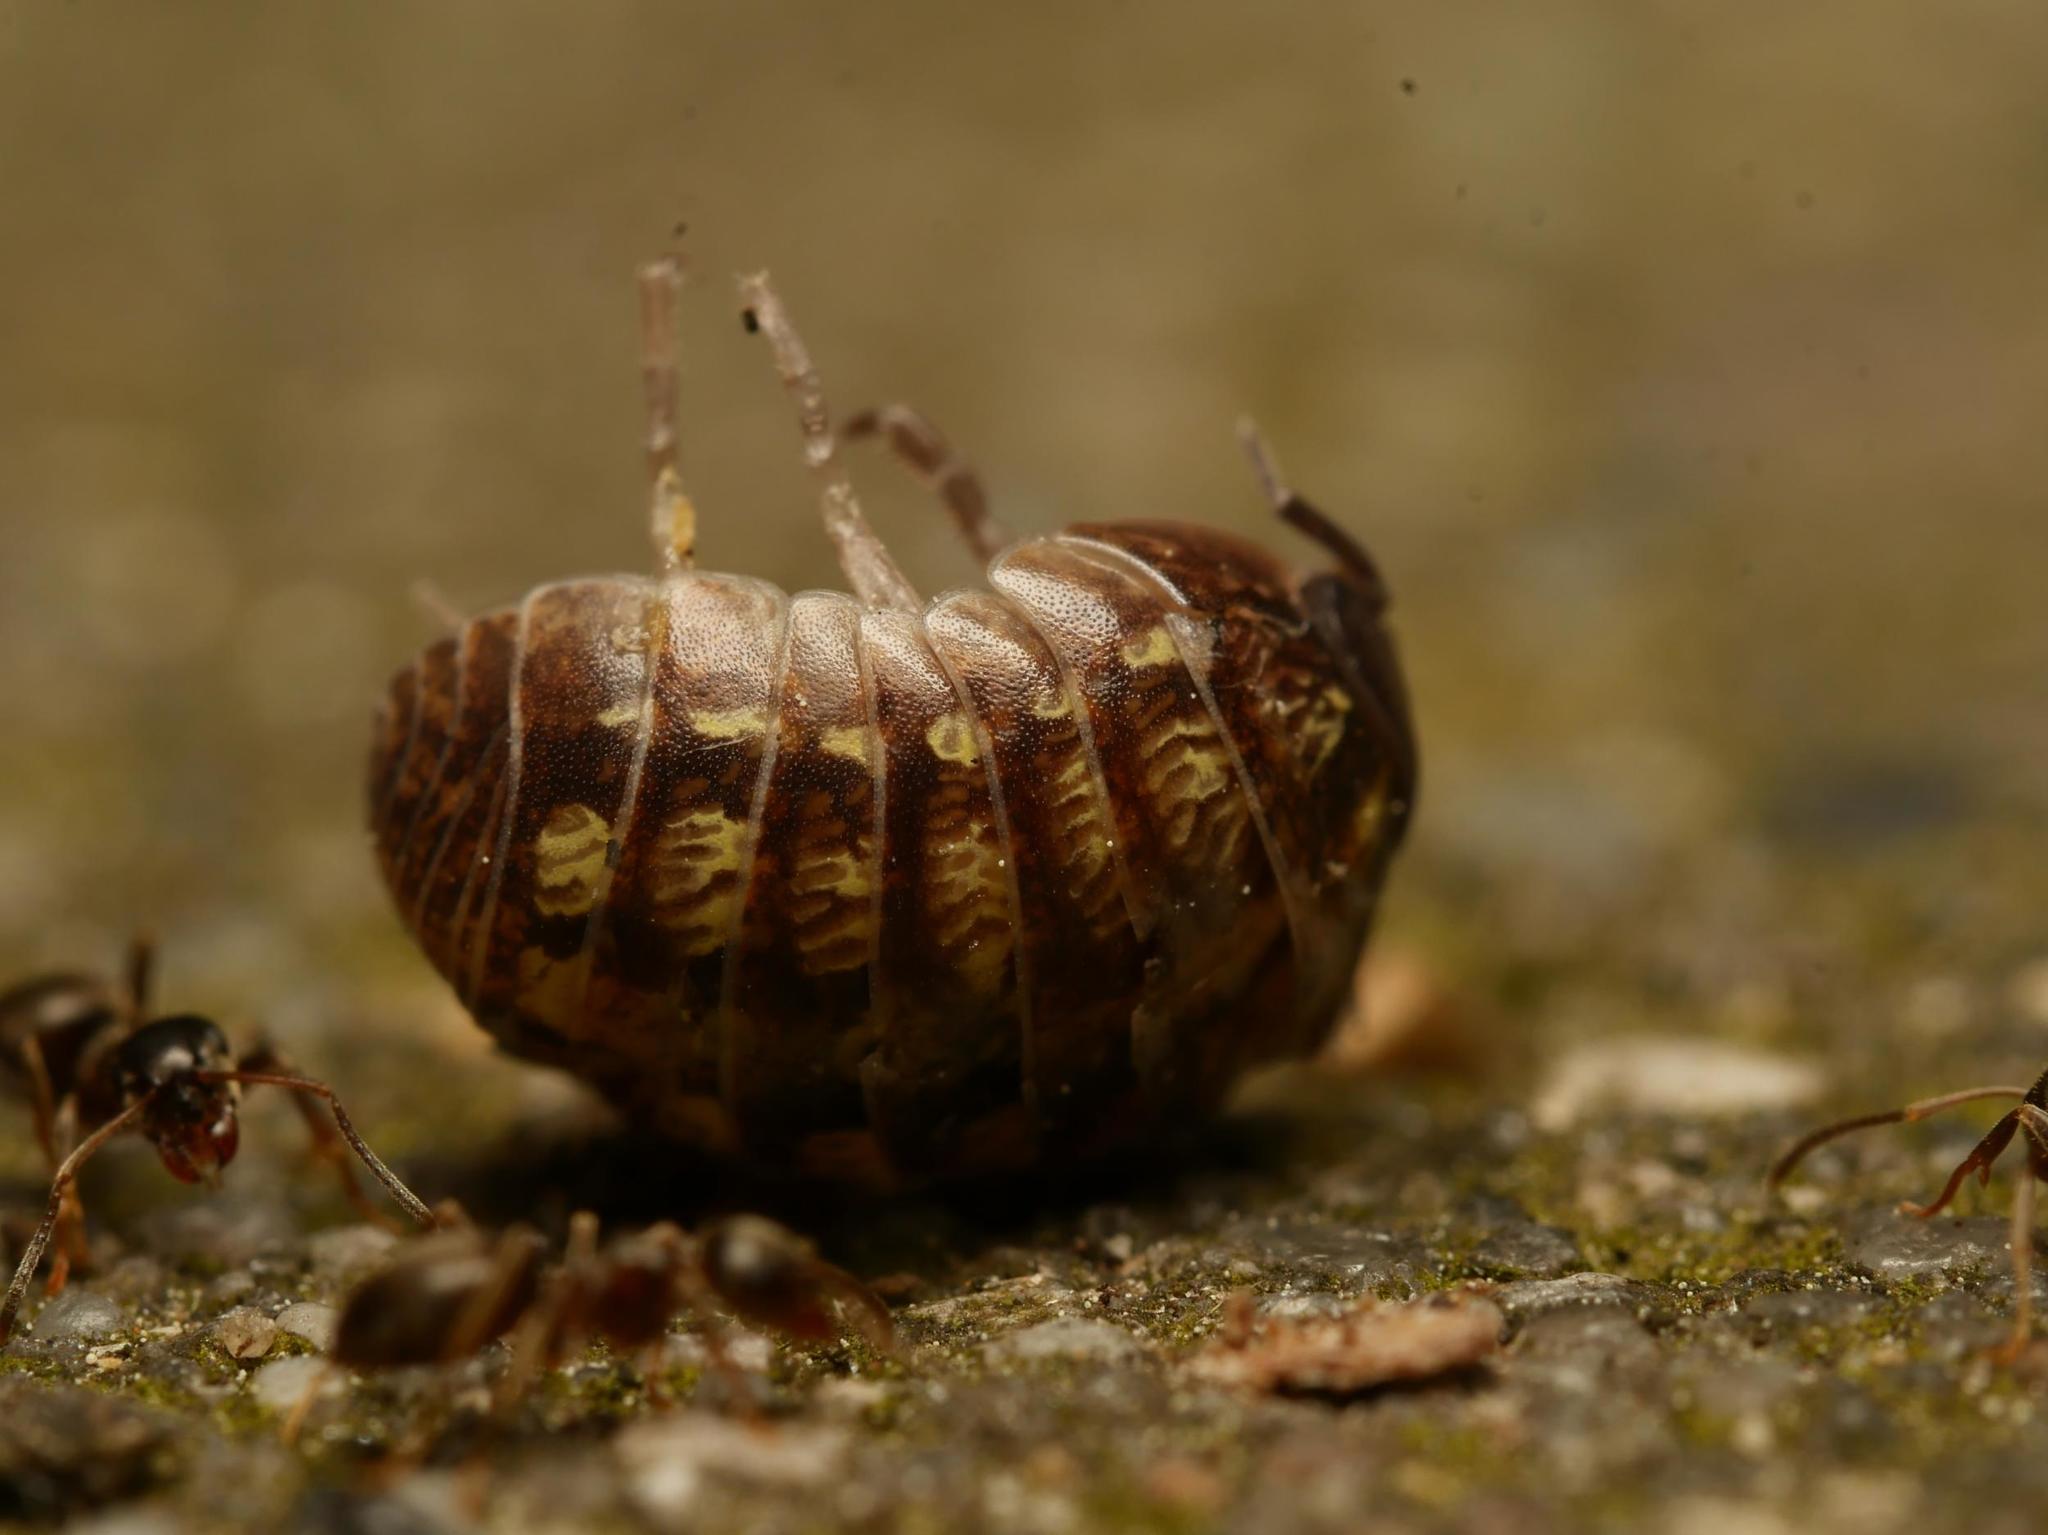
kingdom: Animalia
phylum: Arthropoda
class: Malacostraca
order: Isopoda
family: Armadillidiidae
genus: Armadillidium
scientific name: Armadillidium vulgare
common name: Common pill woodlouse
